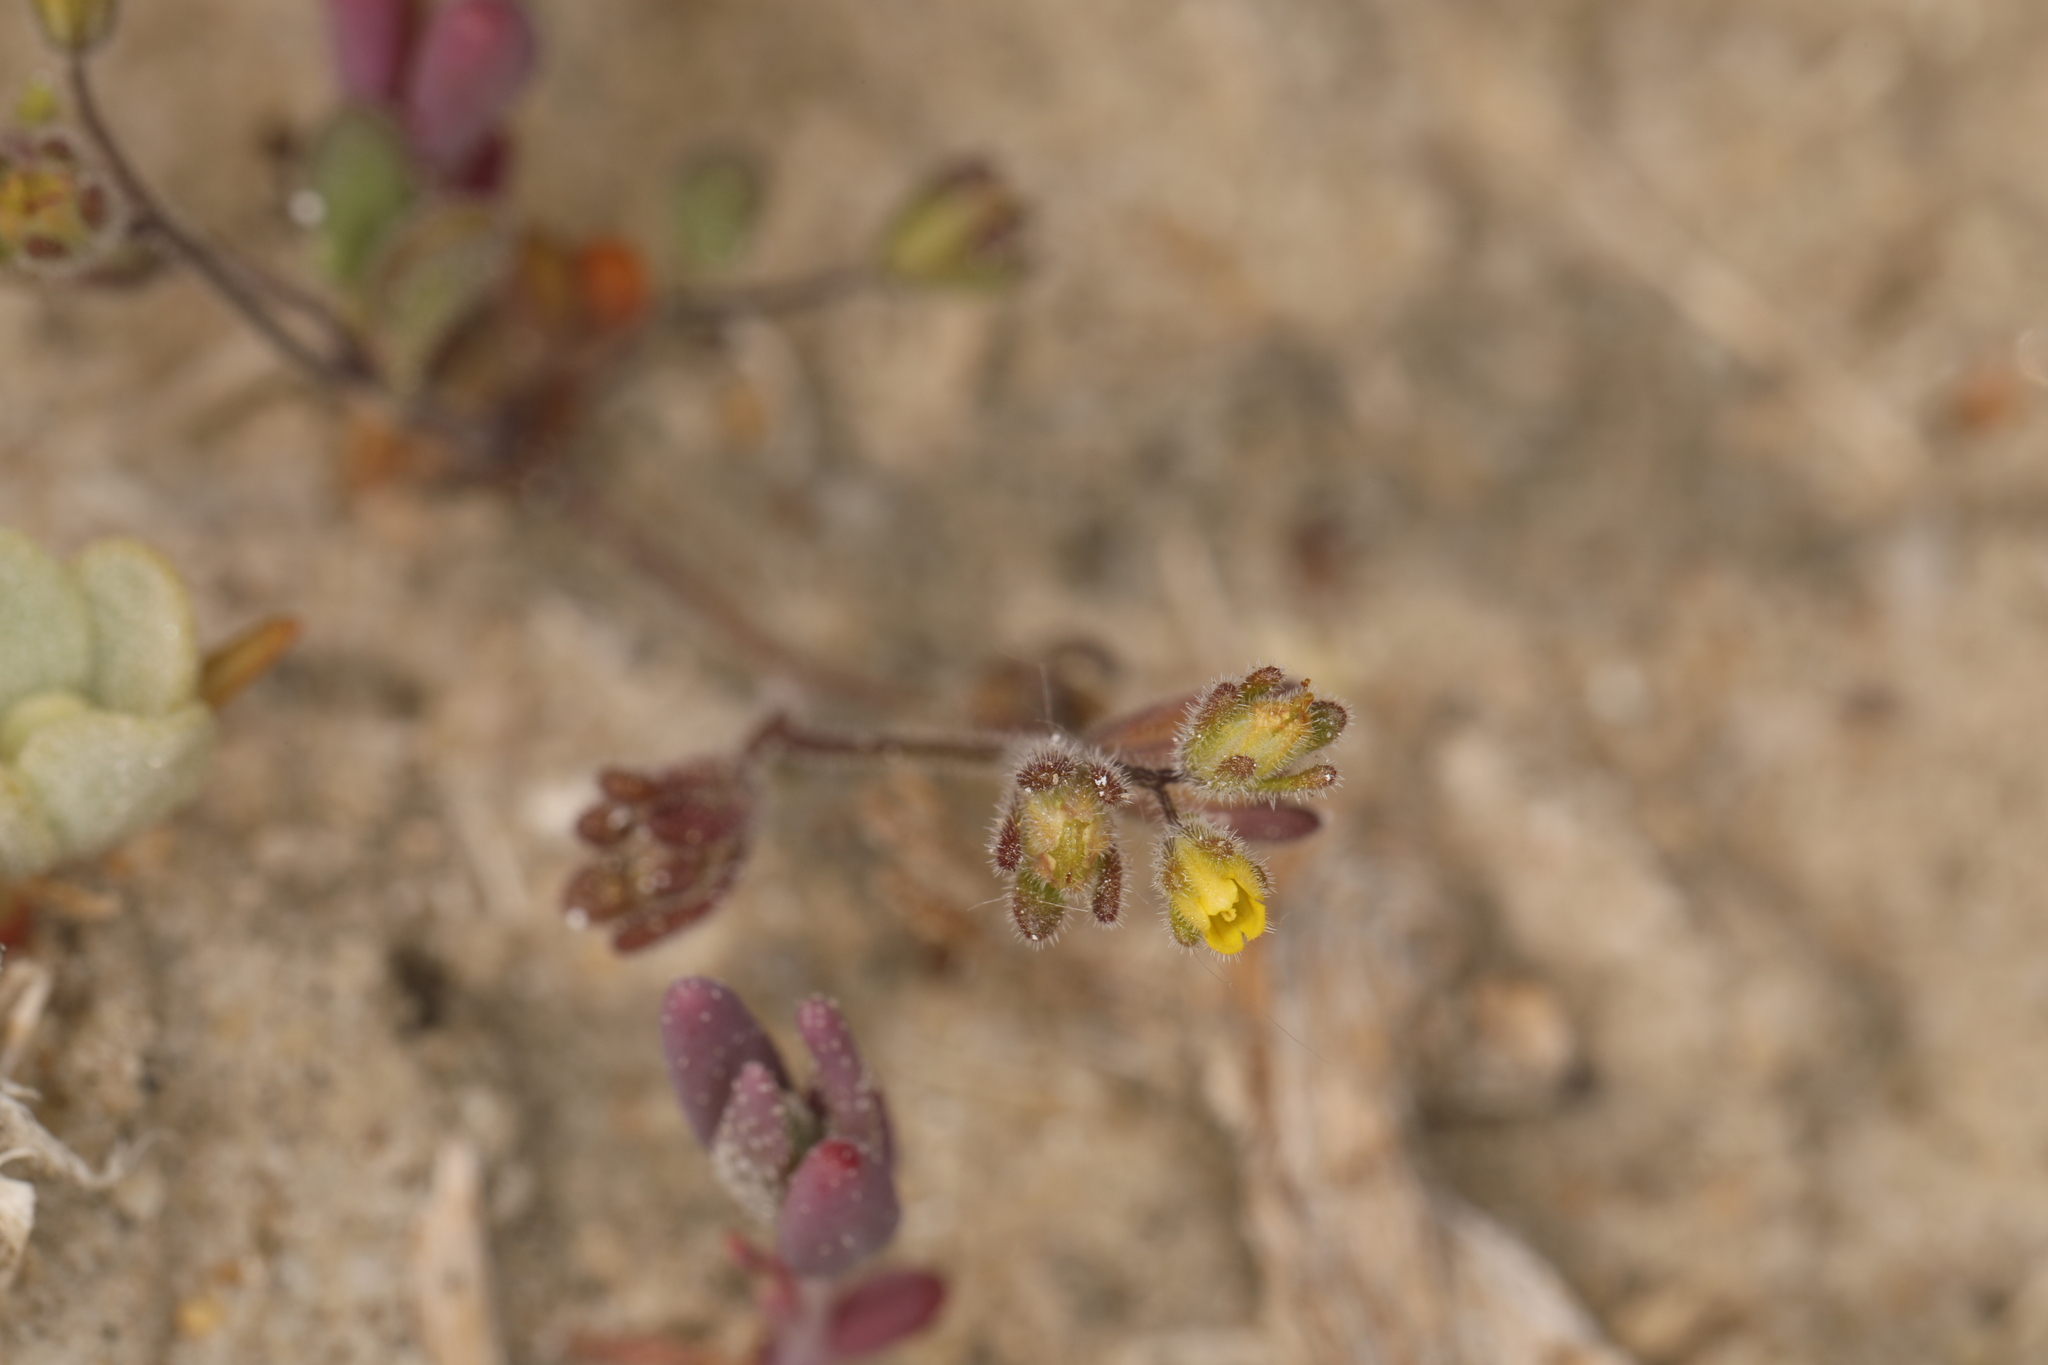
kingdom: Plantae
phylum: Tracheophyta
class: Magnoliopsida
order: Boraginales
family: Hydrophyllaceae
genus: Phacelia
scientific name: Phacelia inyoensis
